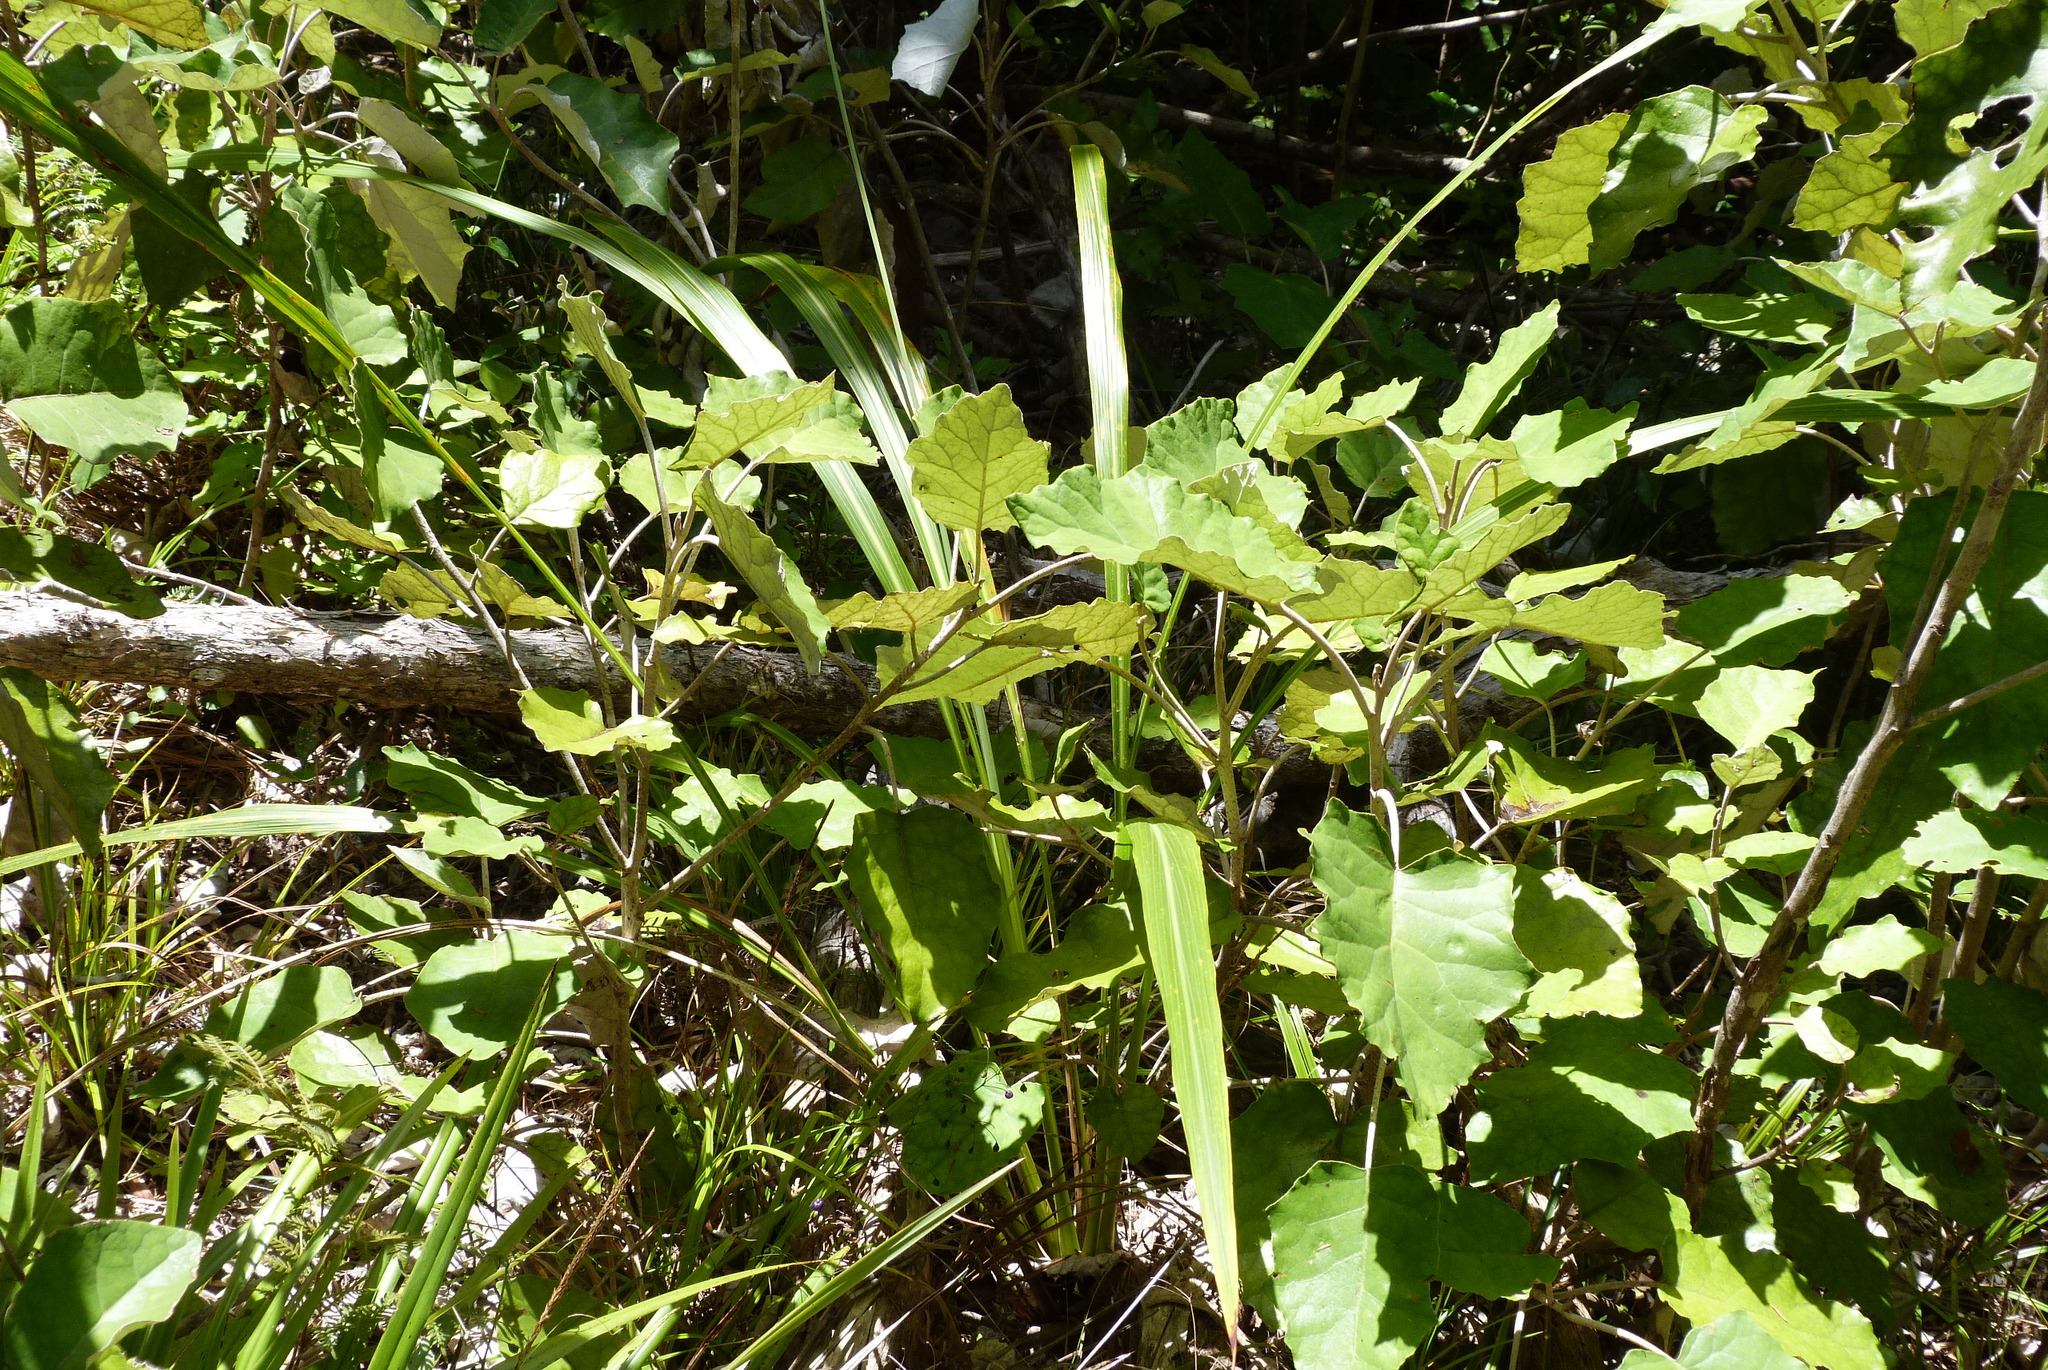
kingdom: Plantae
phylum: Tracheophyta
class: Liliopsida
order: Asparagales
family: Asparagaceae
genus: Cordyline
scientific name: Cordyline banksii
